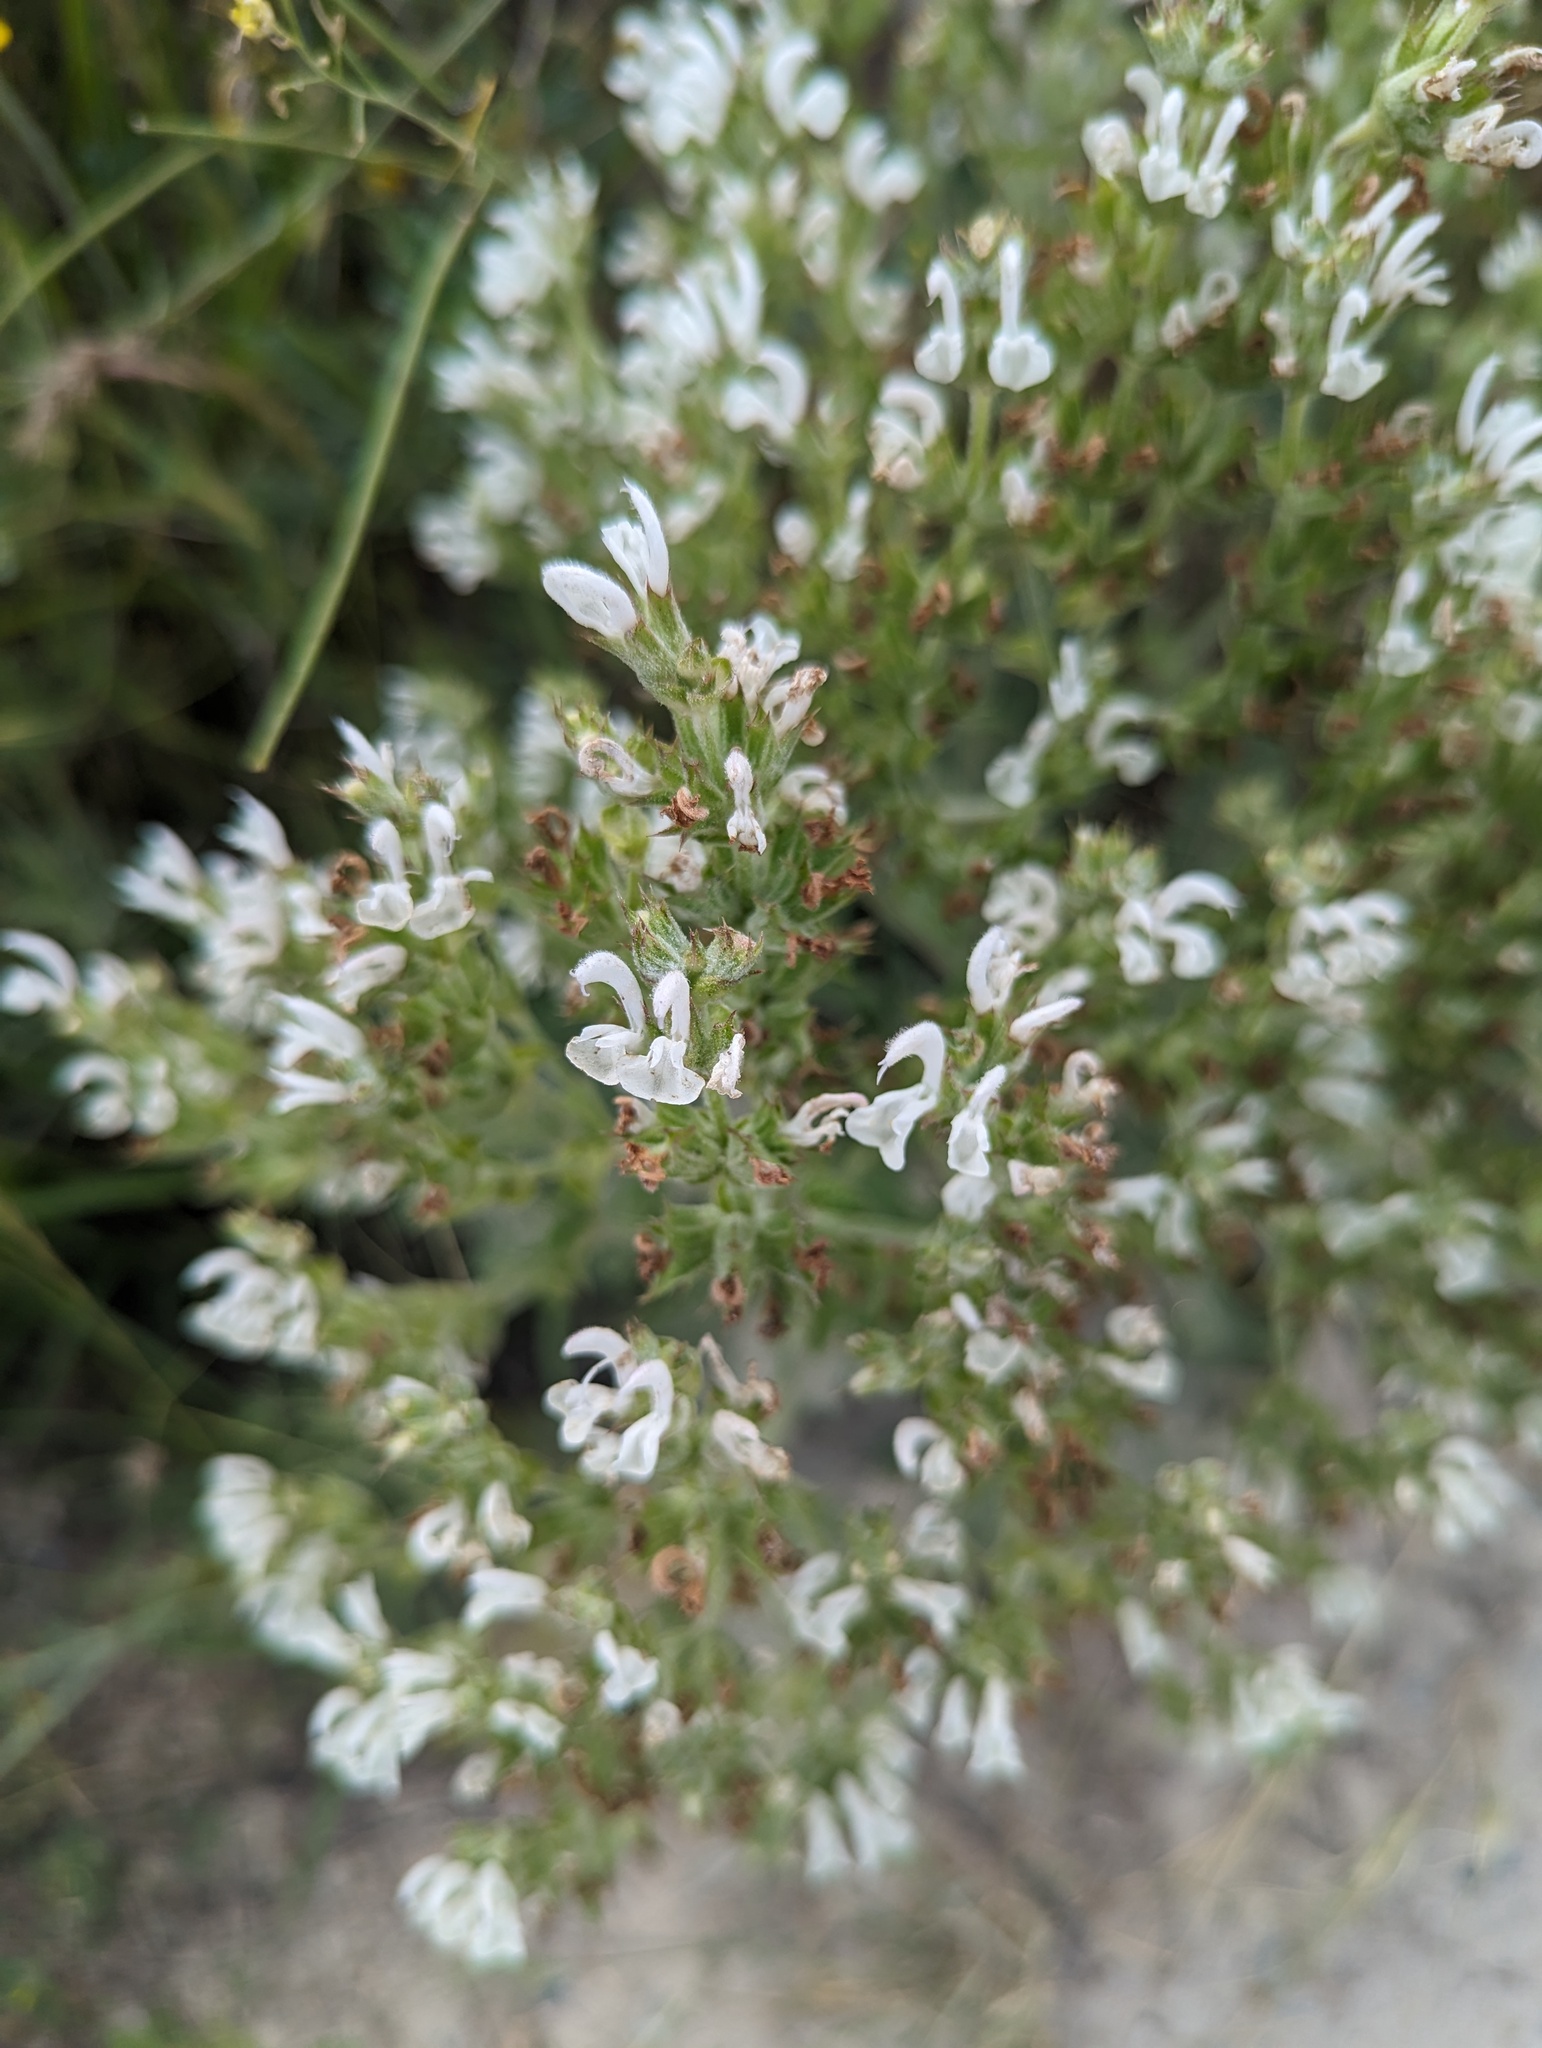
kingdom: Plantae
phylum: Tracheophyta
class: Magnoliopsida
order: Lamiales
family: Lamiaceae
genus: Salvia
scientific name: Salvia aethiopis
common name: Mediterranean sage
